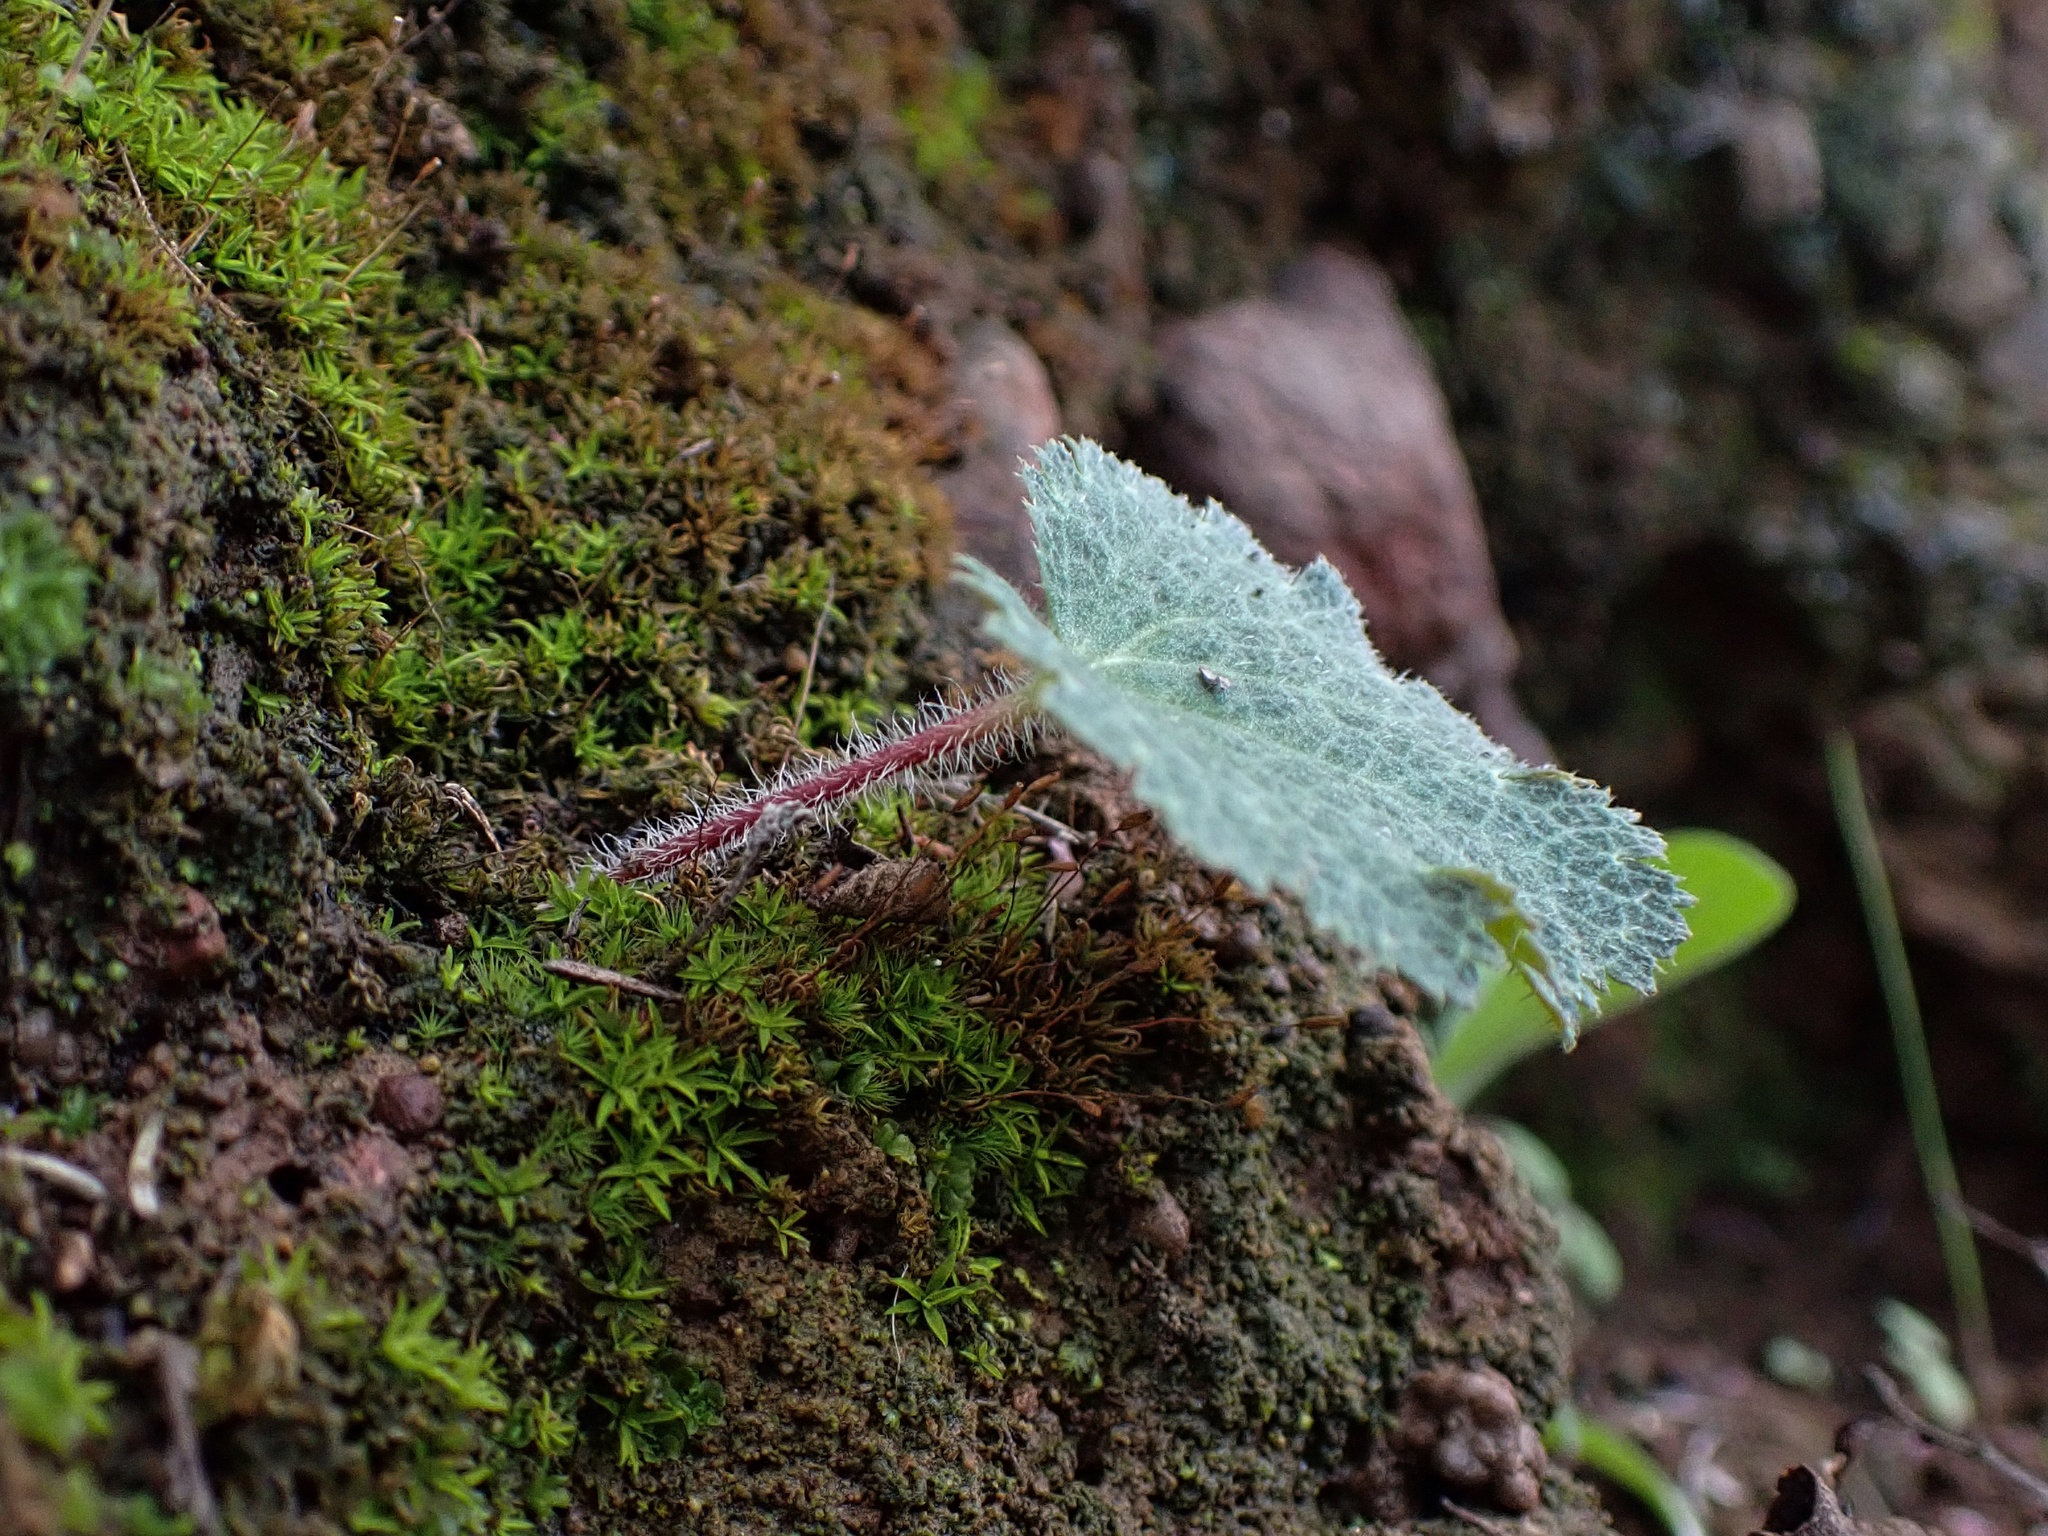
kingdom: Plantae
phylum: Tracheophyta
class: Magnoliopsida
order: Saxifragales
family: Saxifragaceae
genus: Jepsonia
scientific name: Jepsonia parryi
